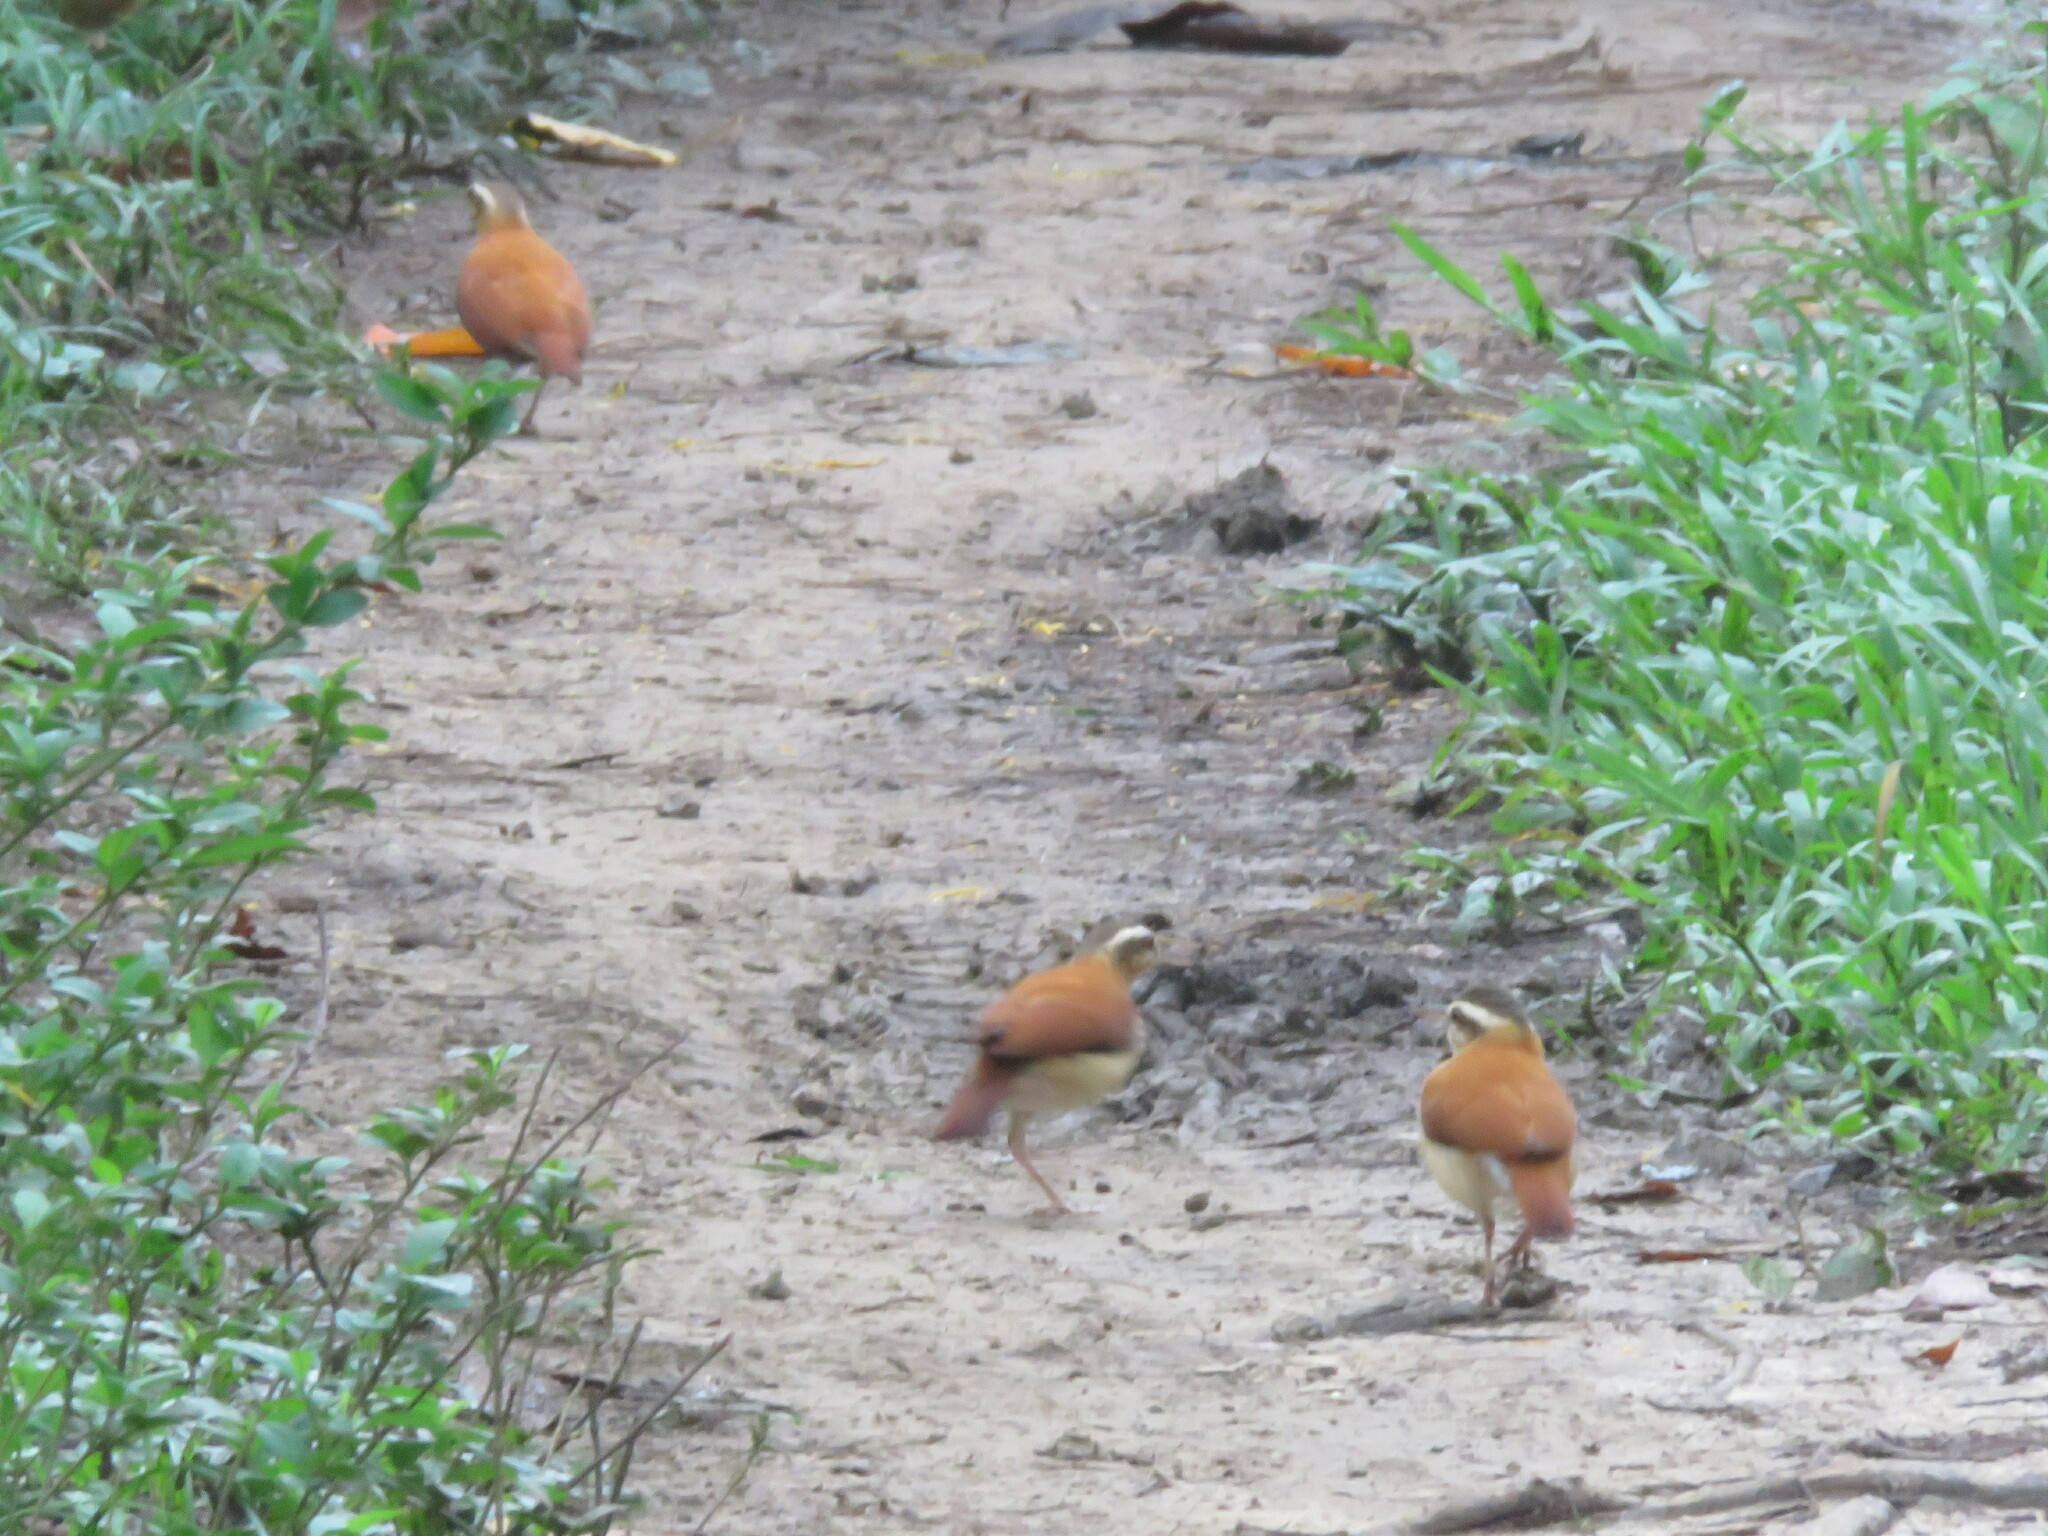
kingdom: Animalia
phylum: Chordata
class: Aves
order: Passeriformes
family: Furnariidae
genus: Furnarius
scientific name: Furnarius leucopus
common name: Pale-legged hornero
